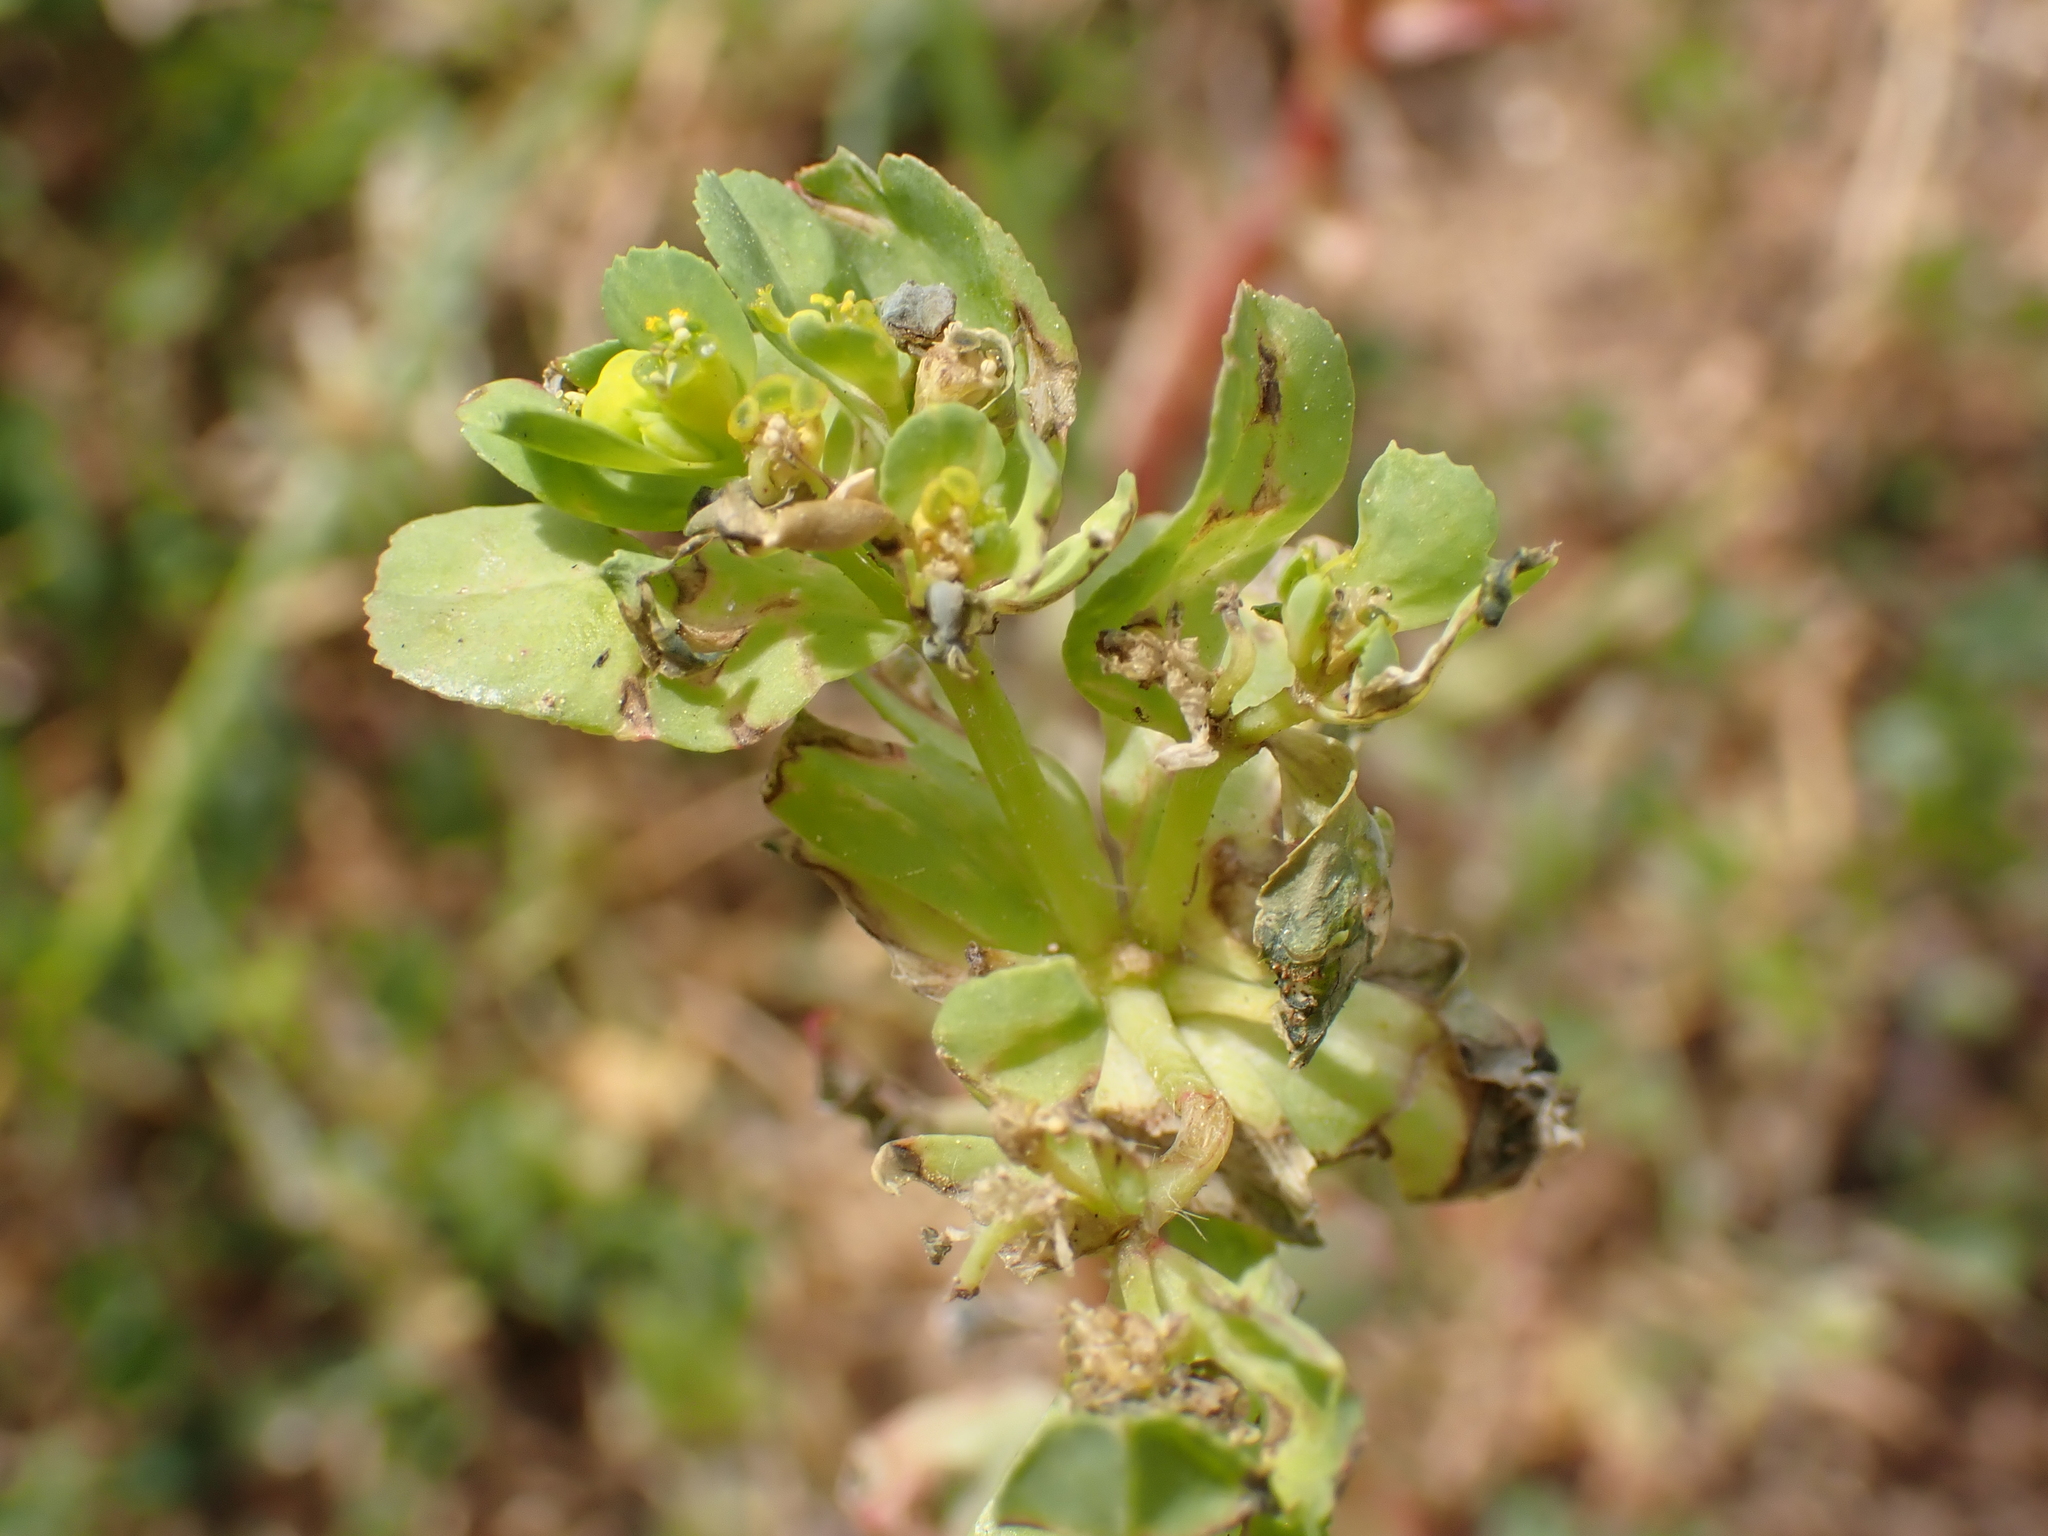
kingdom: Plantae
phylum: Tracheophyta
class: Magnoliopsida
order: Malpighiales
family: Euphorbiaceae
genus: Euphorbia
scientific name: Euphorbia helioscopia
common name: Sun spurge
